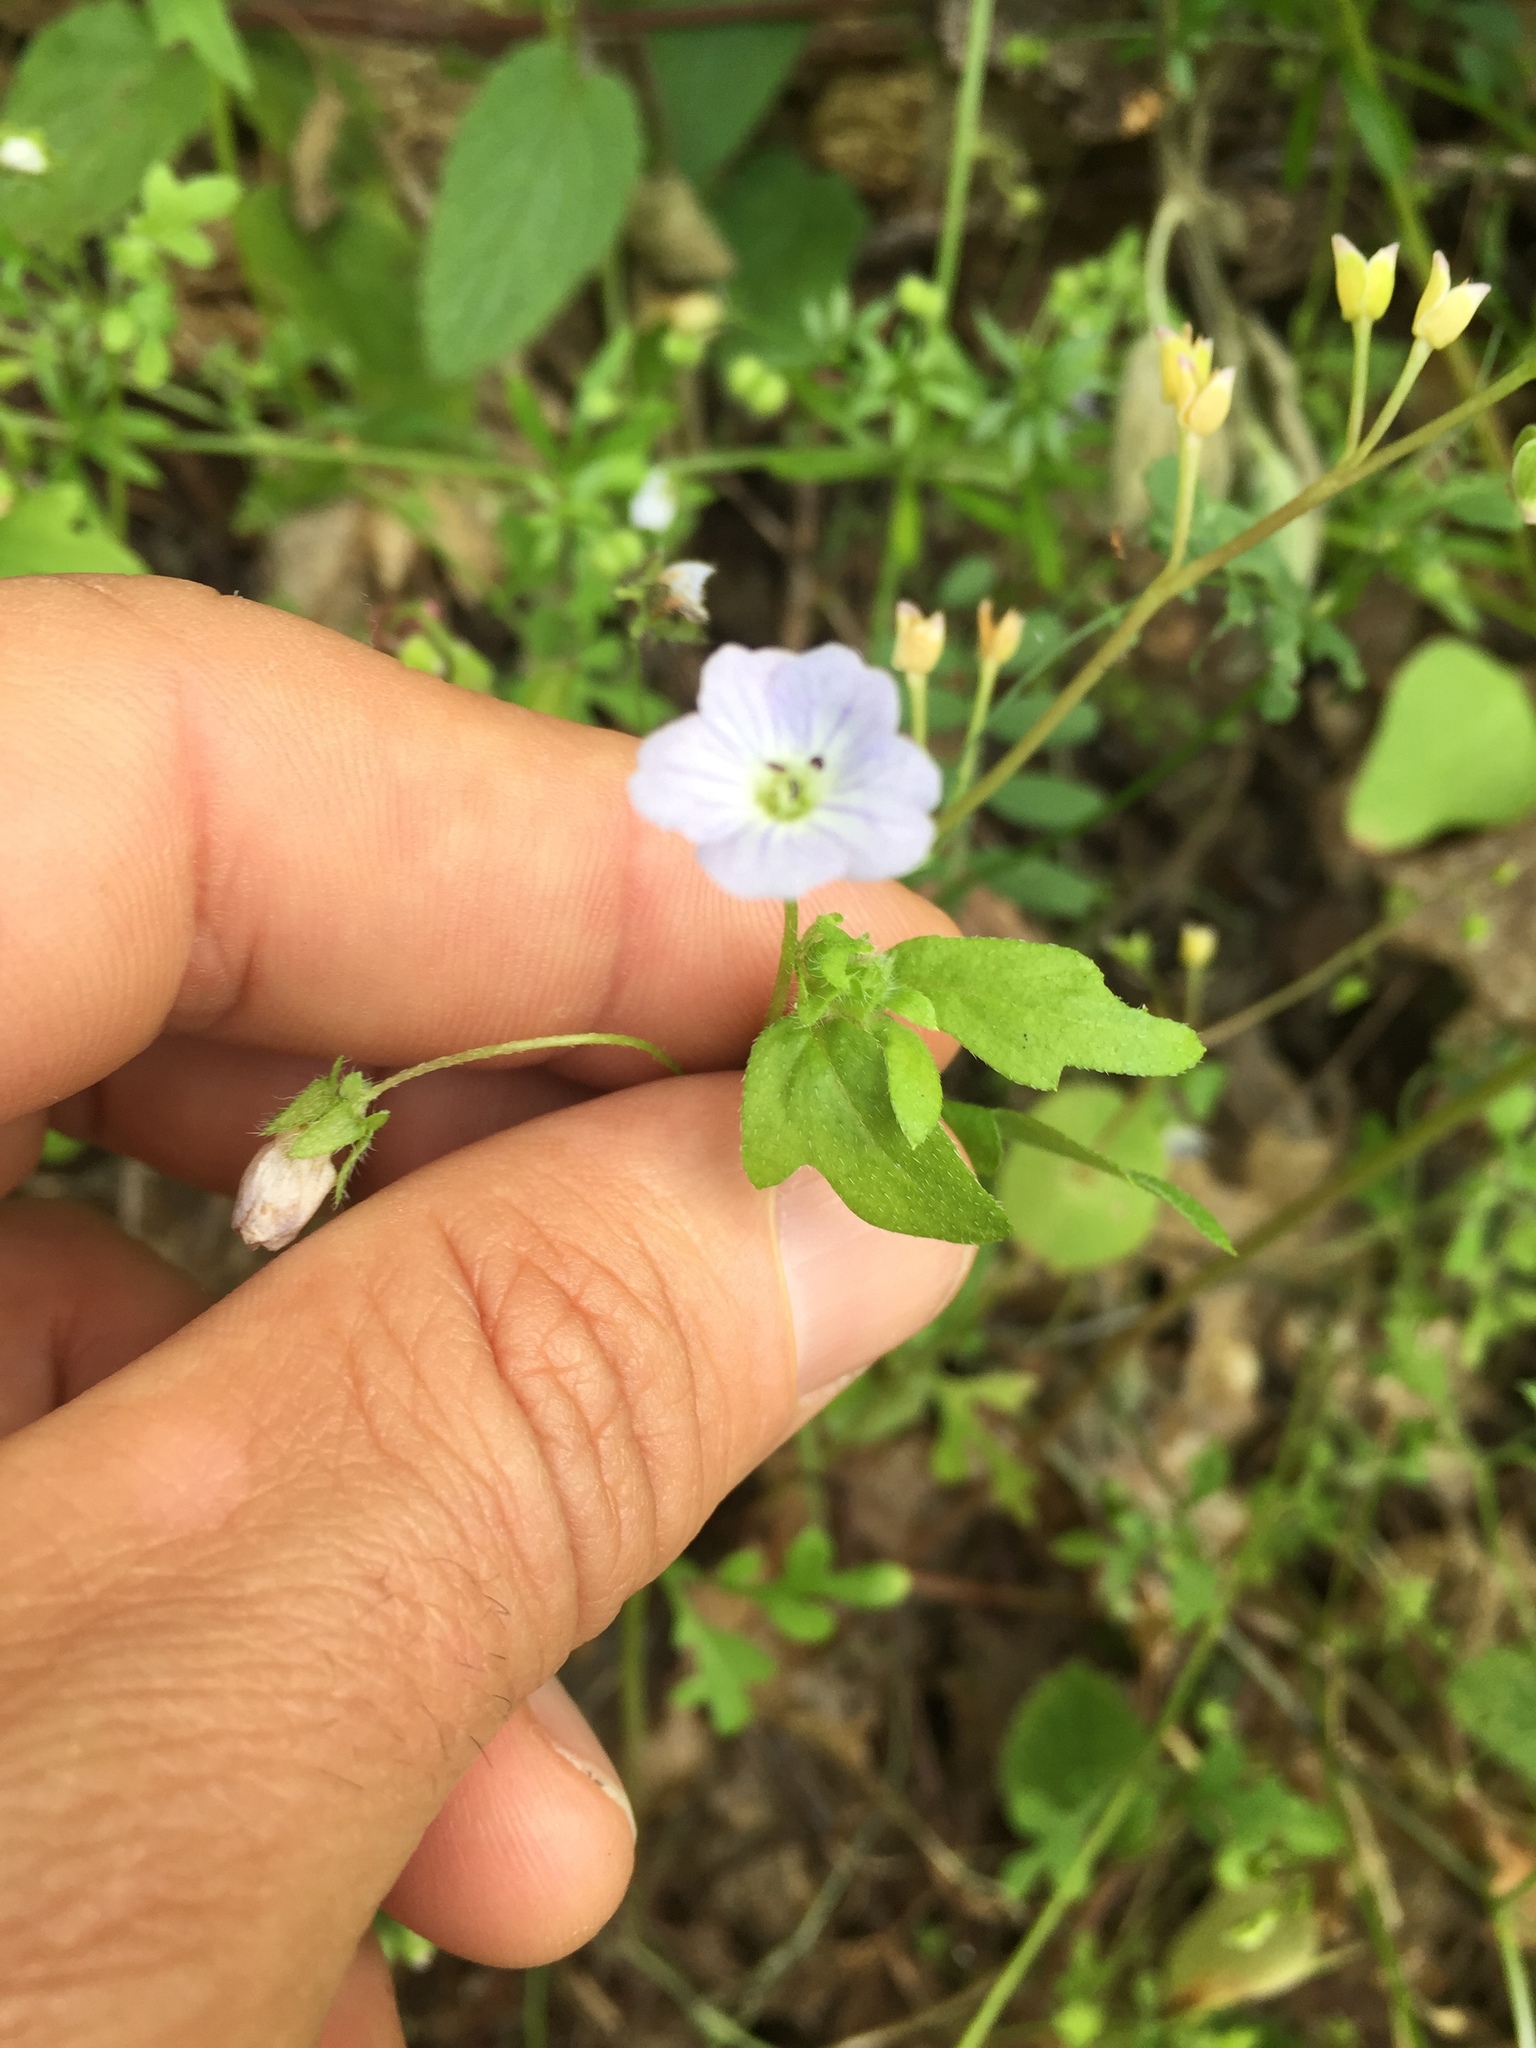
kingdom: Plantae
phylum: Tracheophyta
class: Magnoliopsida
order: Boraginales
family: Hydrophyllaceae
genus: Nemophila
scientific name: Nemophila heterophylla
